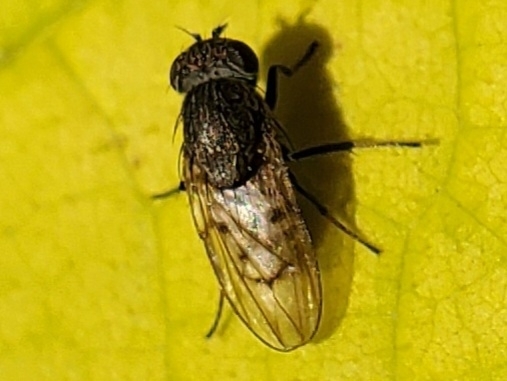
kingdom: Animalia
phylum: Arthropoda
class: Insecta
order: Diptera
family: Ephydridae
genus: Paralimna
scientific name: Paralimna punctipennis
